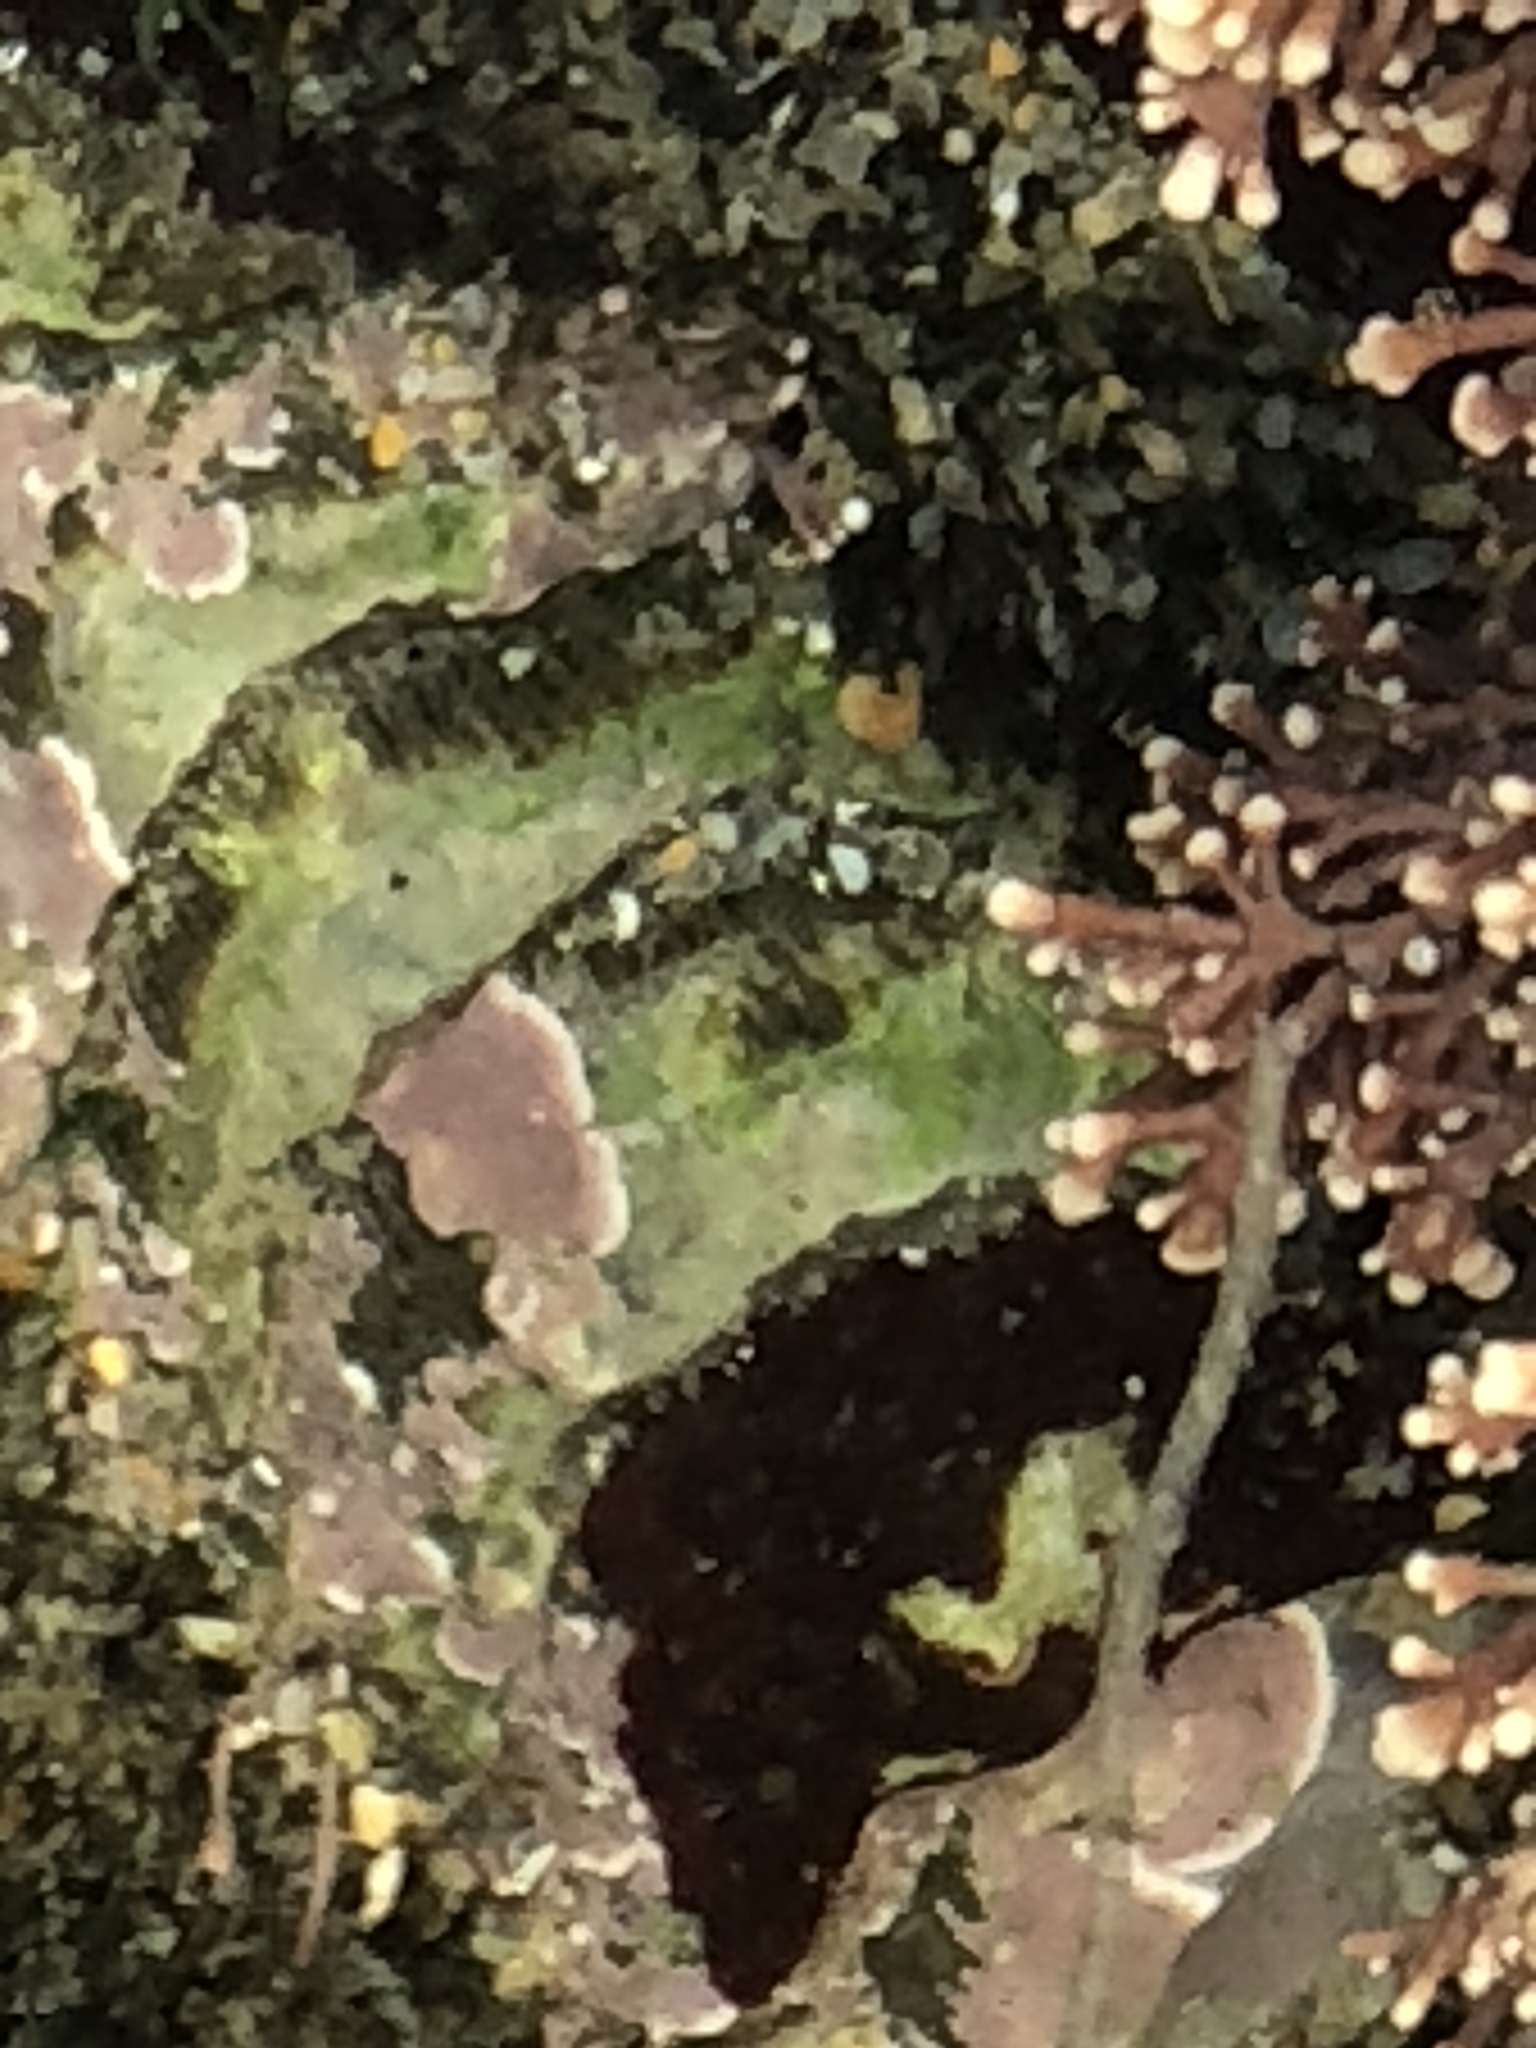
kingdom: Animalia
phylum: Mollusca
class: Polyplacophora
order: Chitonida
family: Mopaliidae
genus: Mopalia
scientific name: Mopalia muscosa
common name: Mossy chiton
